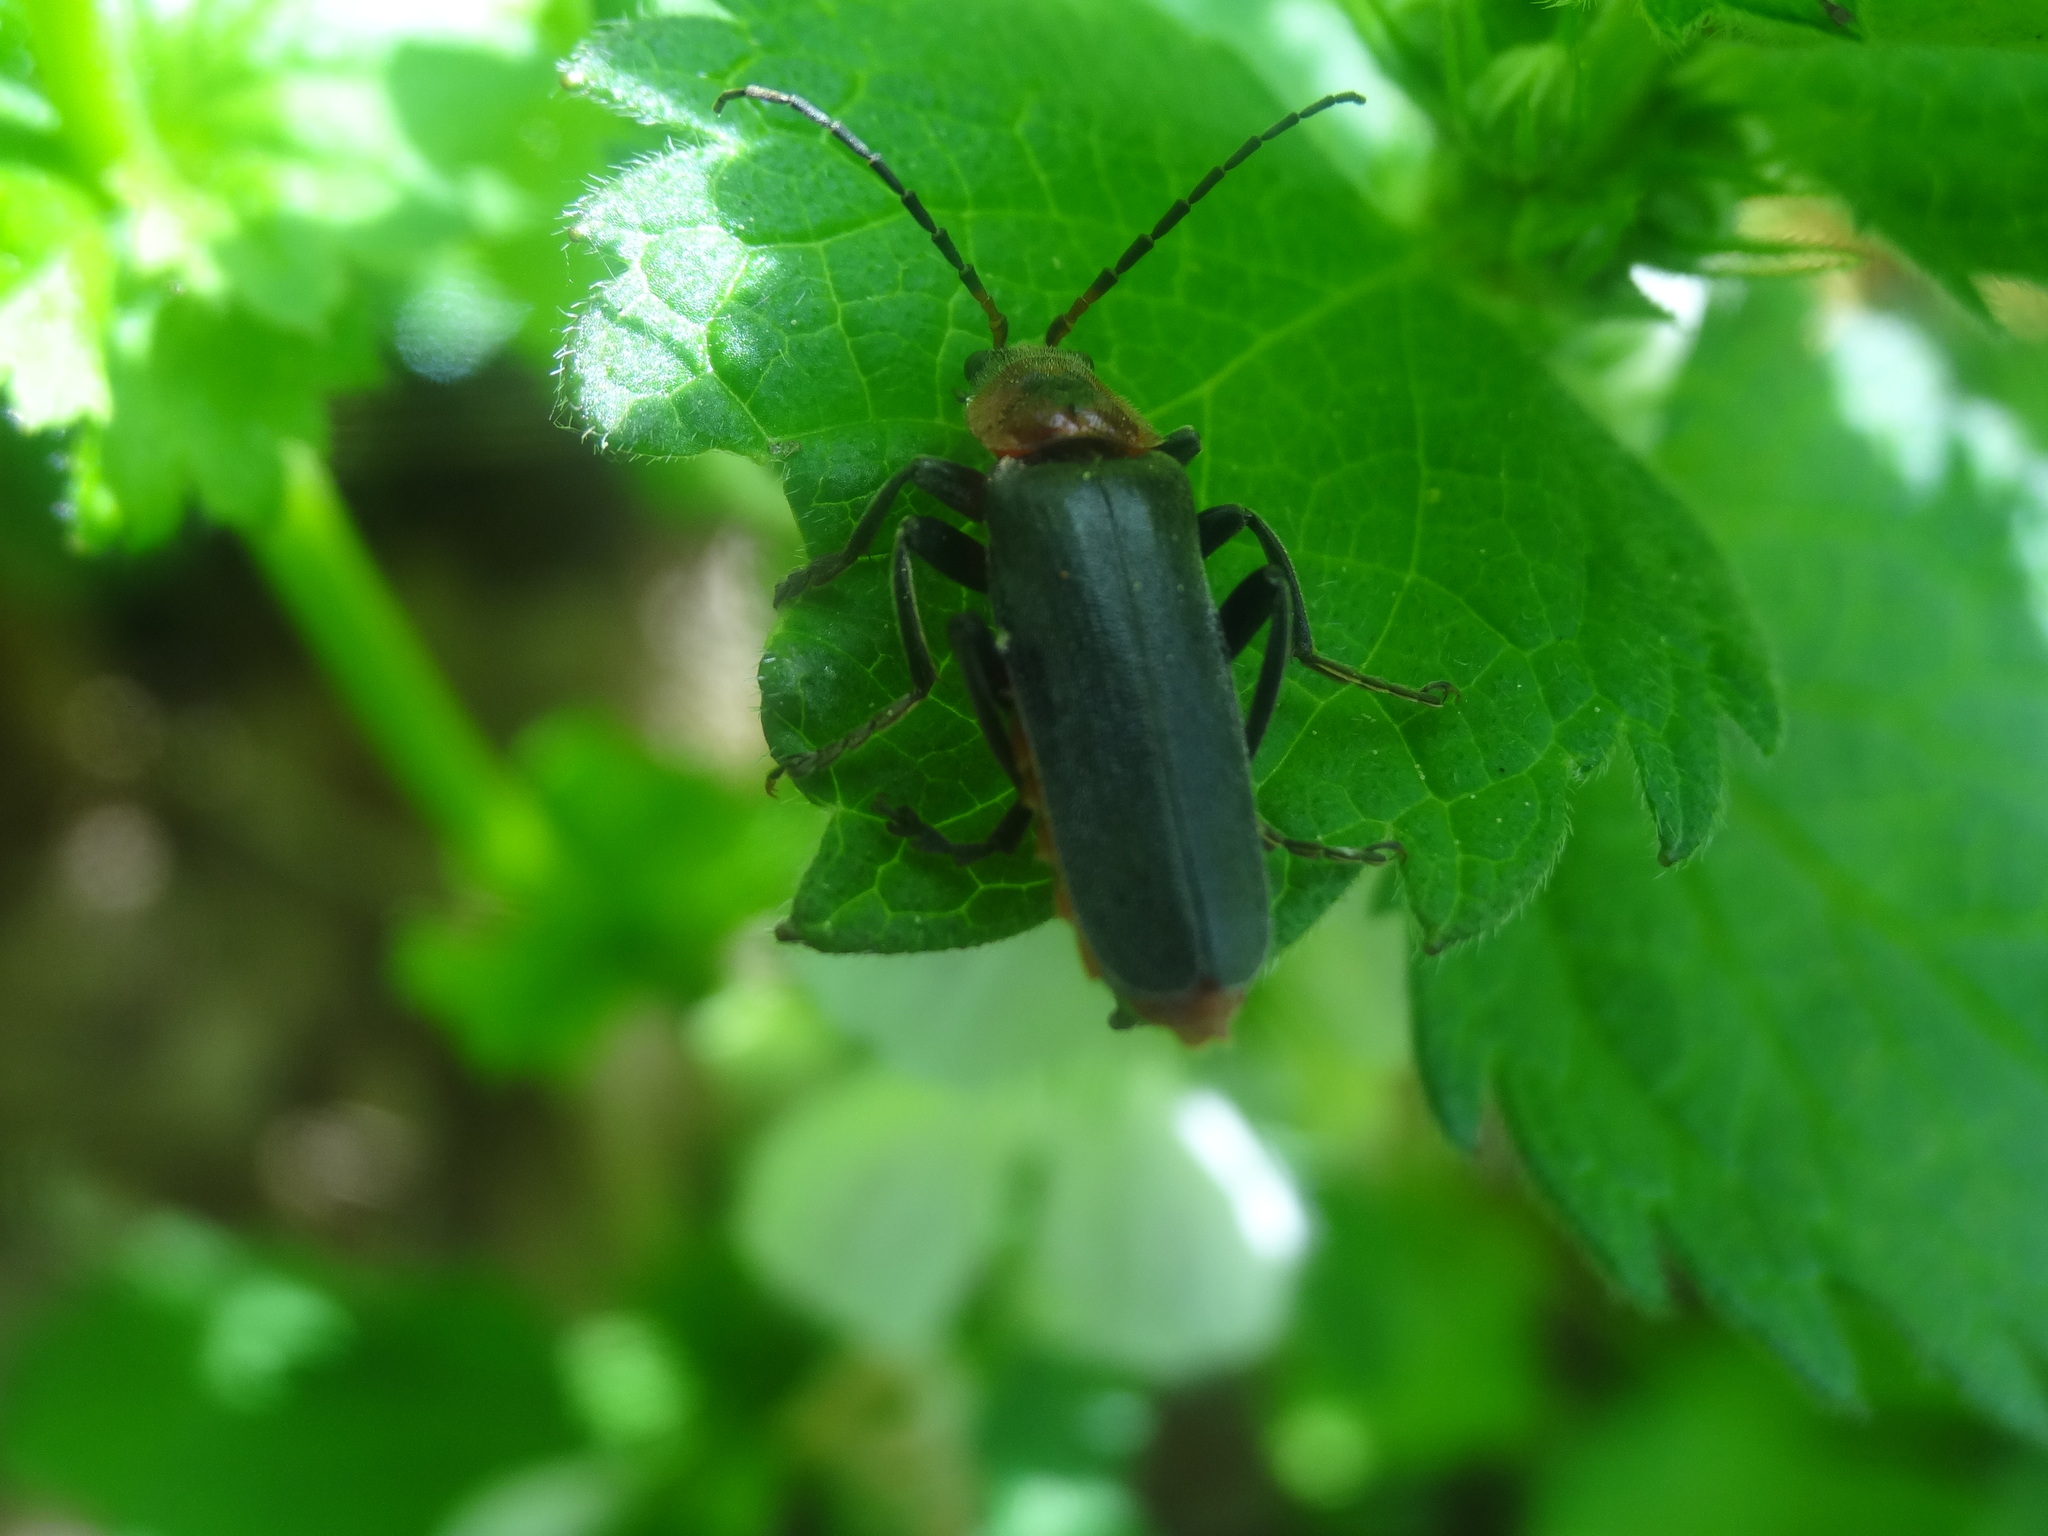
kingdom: Animalia
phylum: Arthropoda
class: Insecta
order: Coleoptera
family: Cantharidae
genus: Cantharis
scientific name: Cantharis rustica
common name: Soldier beetle
